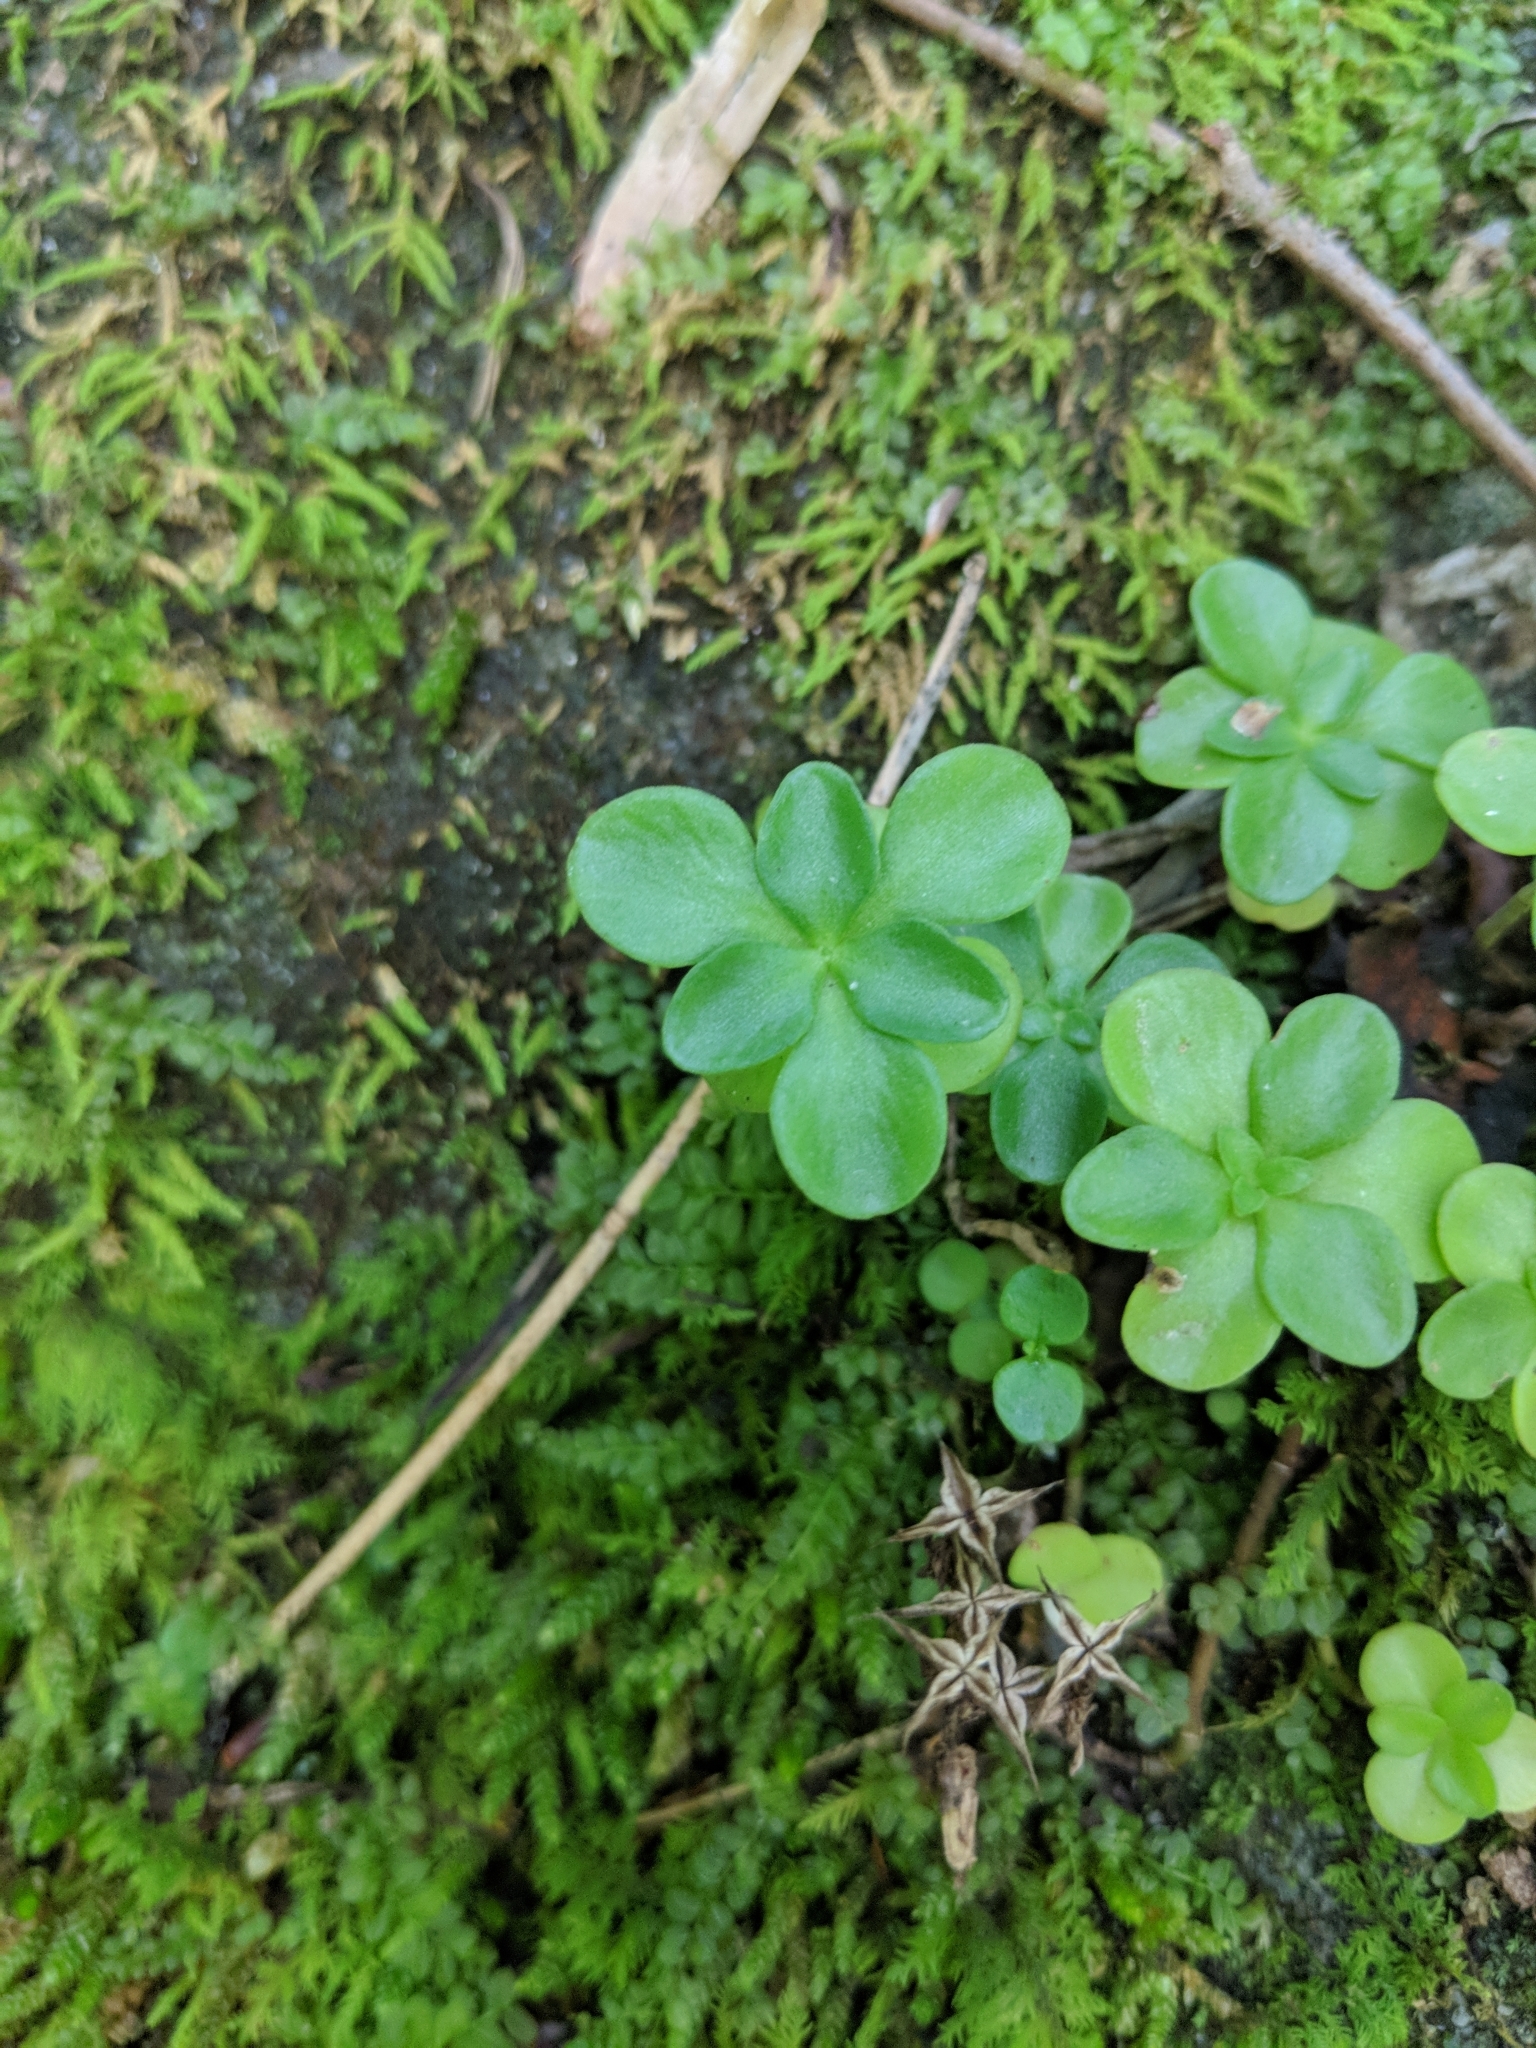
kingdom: Plantae
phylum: Tracheophyta
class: Magnoliopsida
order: Saxifragales
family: Crassulaceae
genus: Sedum
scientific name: Sedum ternatum
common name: Wild stonecrop
